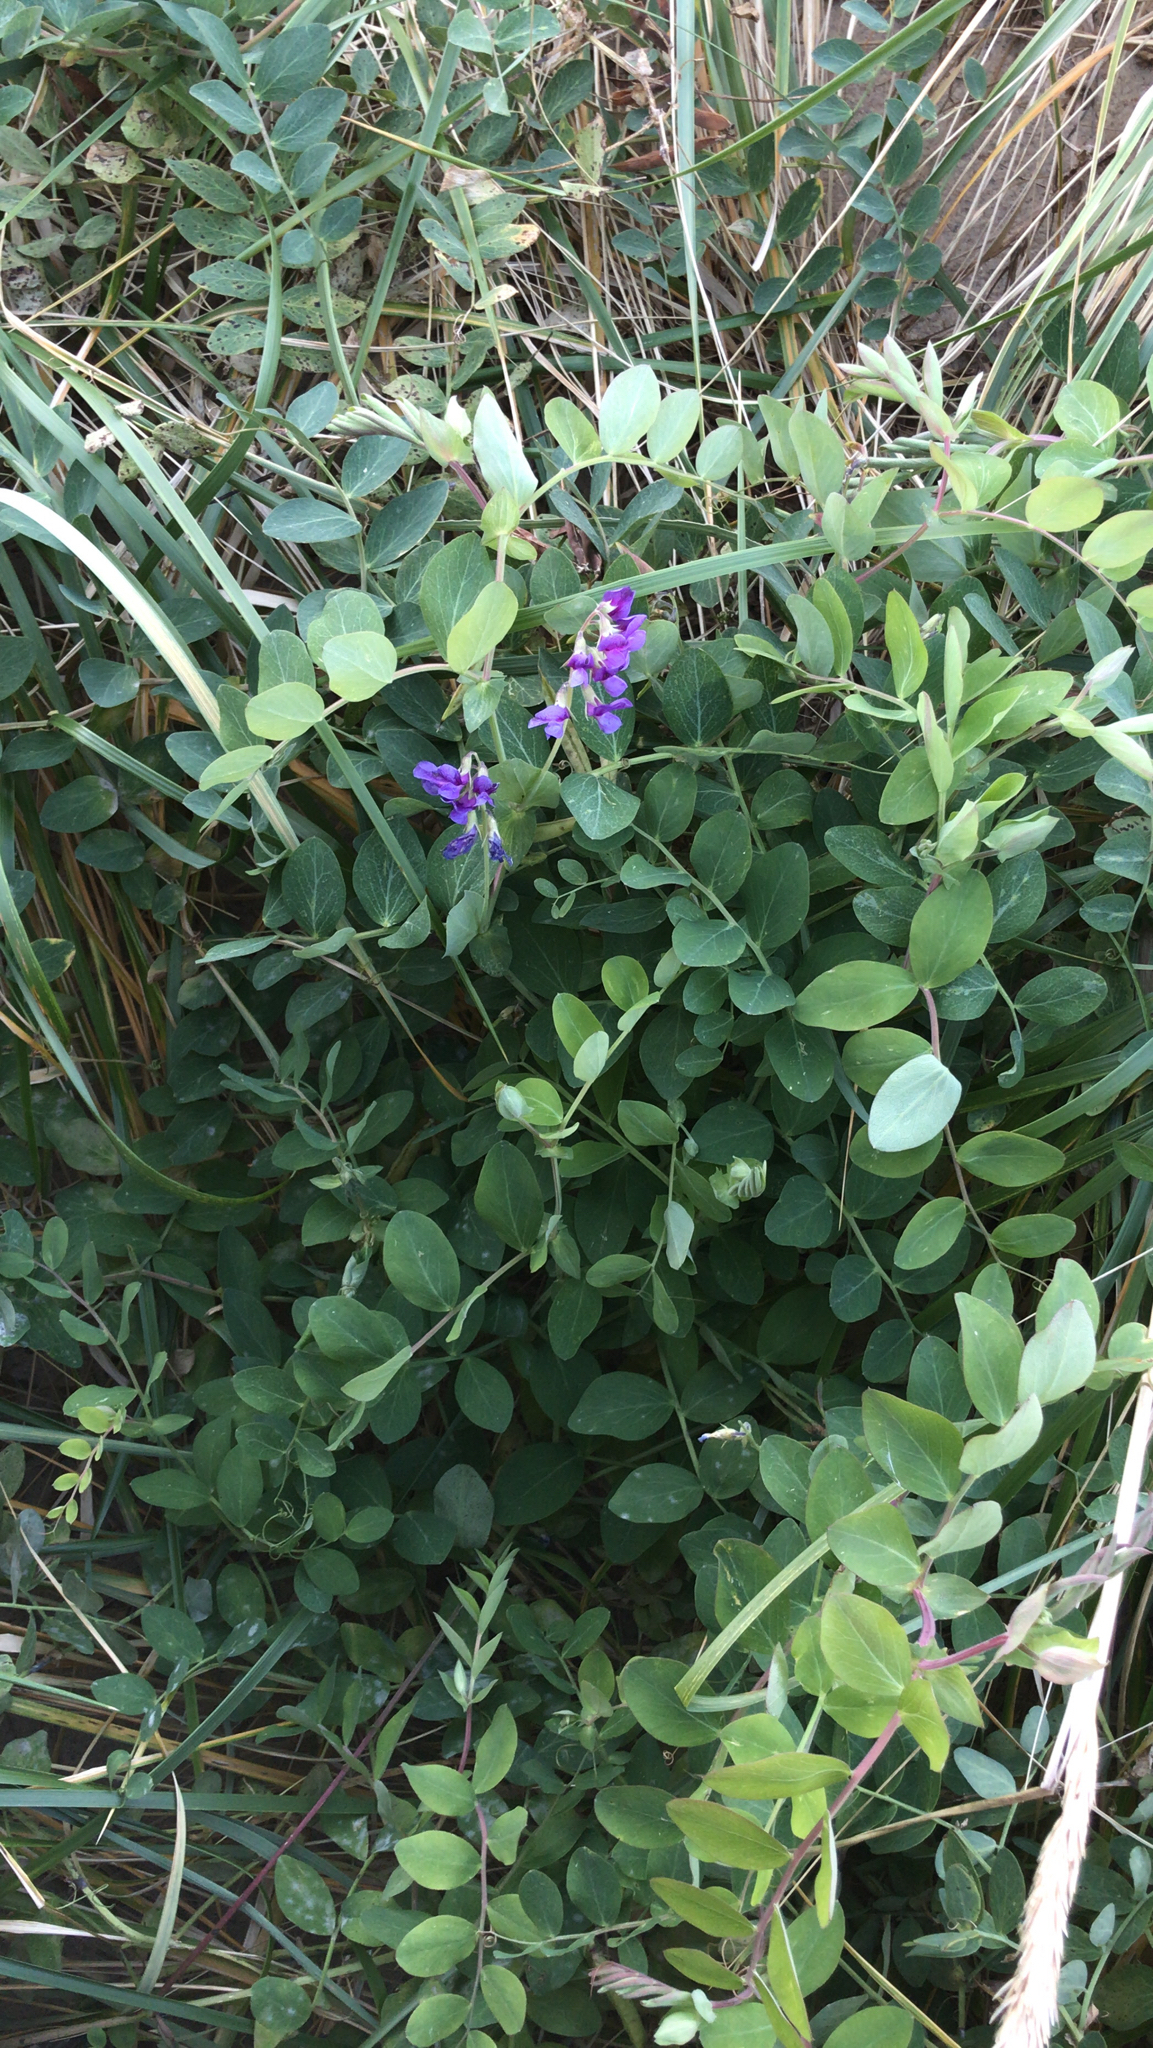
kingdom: Plantae
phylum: Tracheophyta
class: Magnoliopsida
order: Fabales
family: Fabaceae
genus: Lathyrus
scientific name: Lathyrus japonicus
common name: Sea pea
